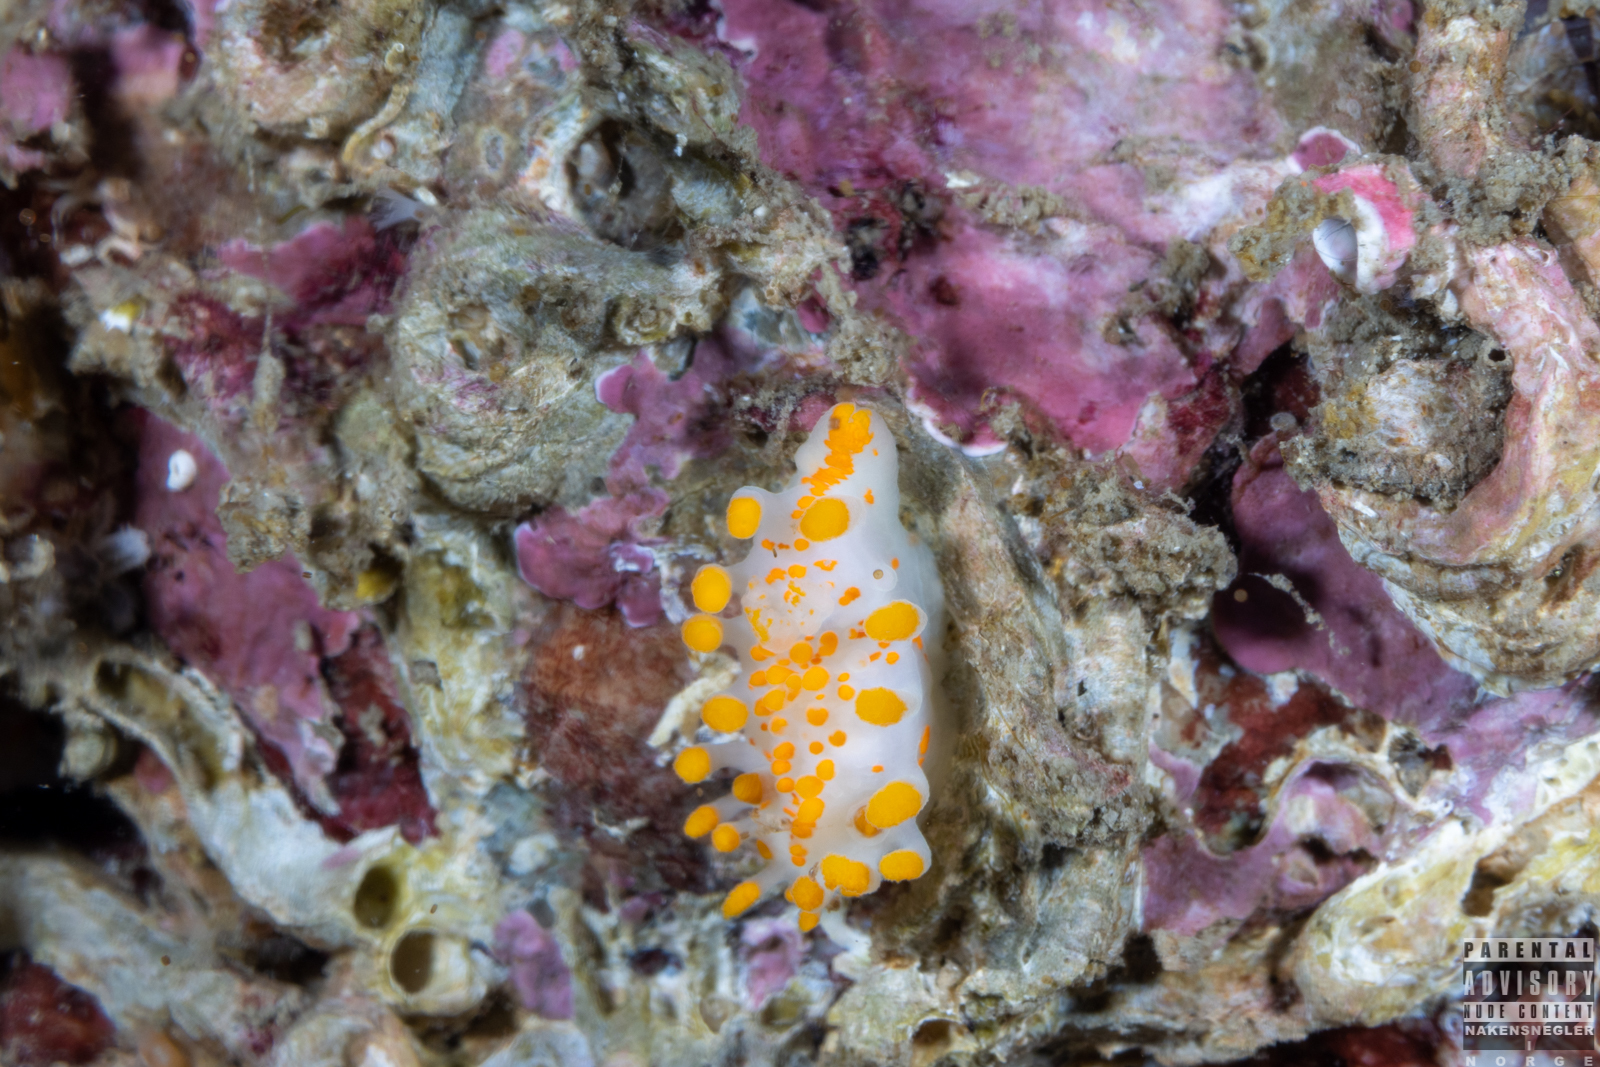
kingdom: Animalia
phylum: Mollusca
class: Gastropoda
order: Nudibranchia
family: Polyceridae
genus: Limacia
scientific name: Limacia clavigera
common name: Orange-clubbed sea slug
